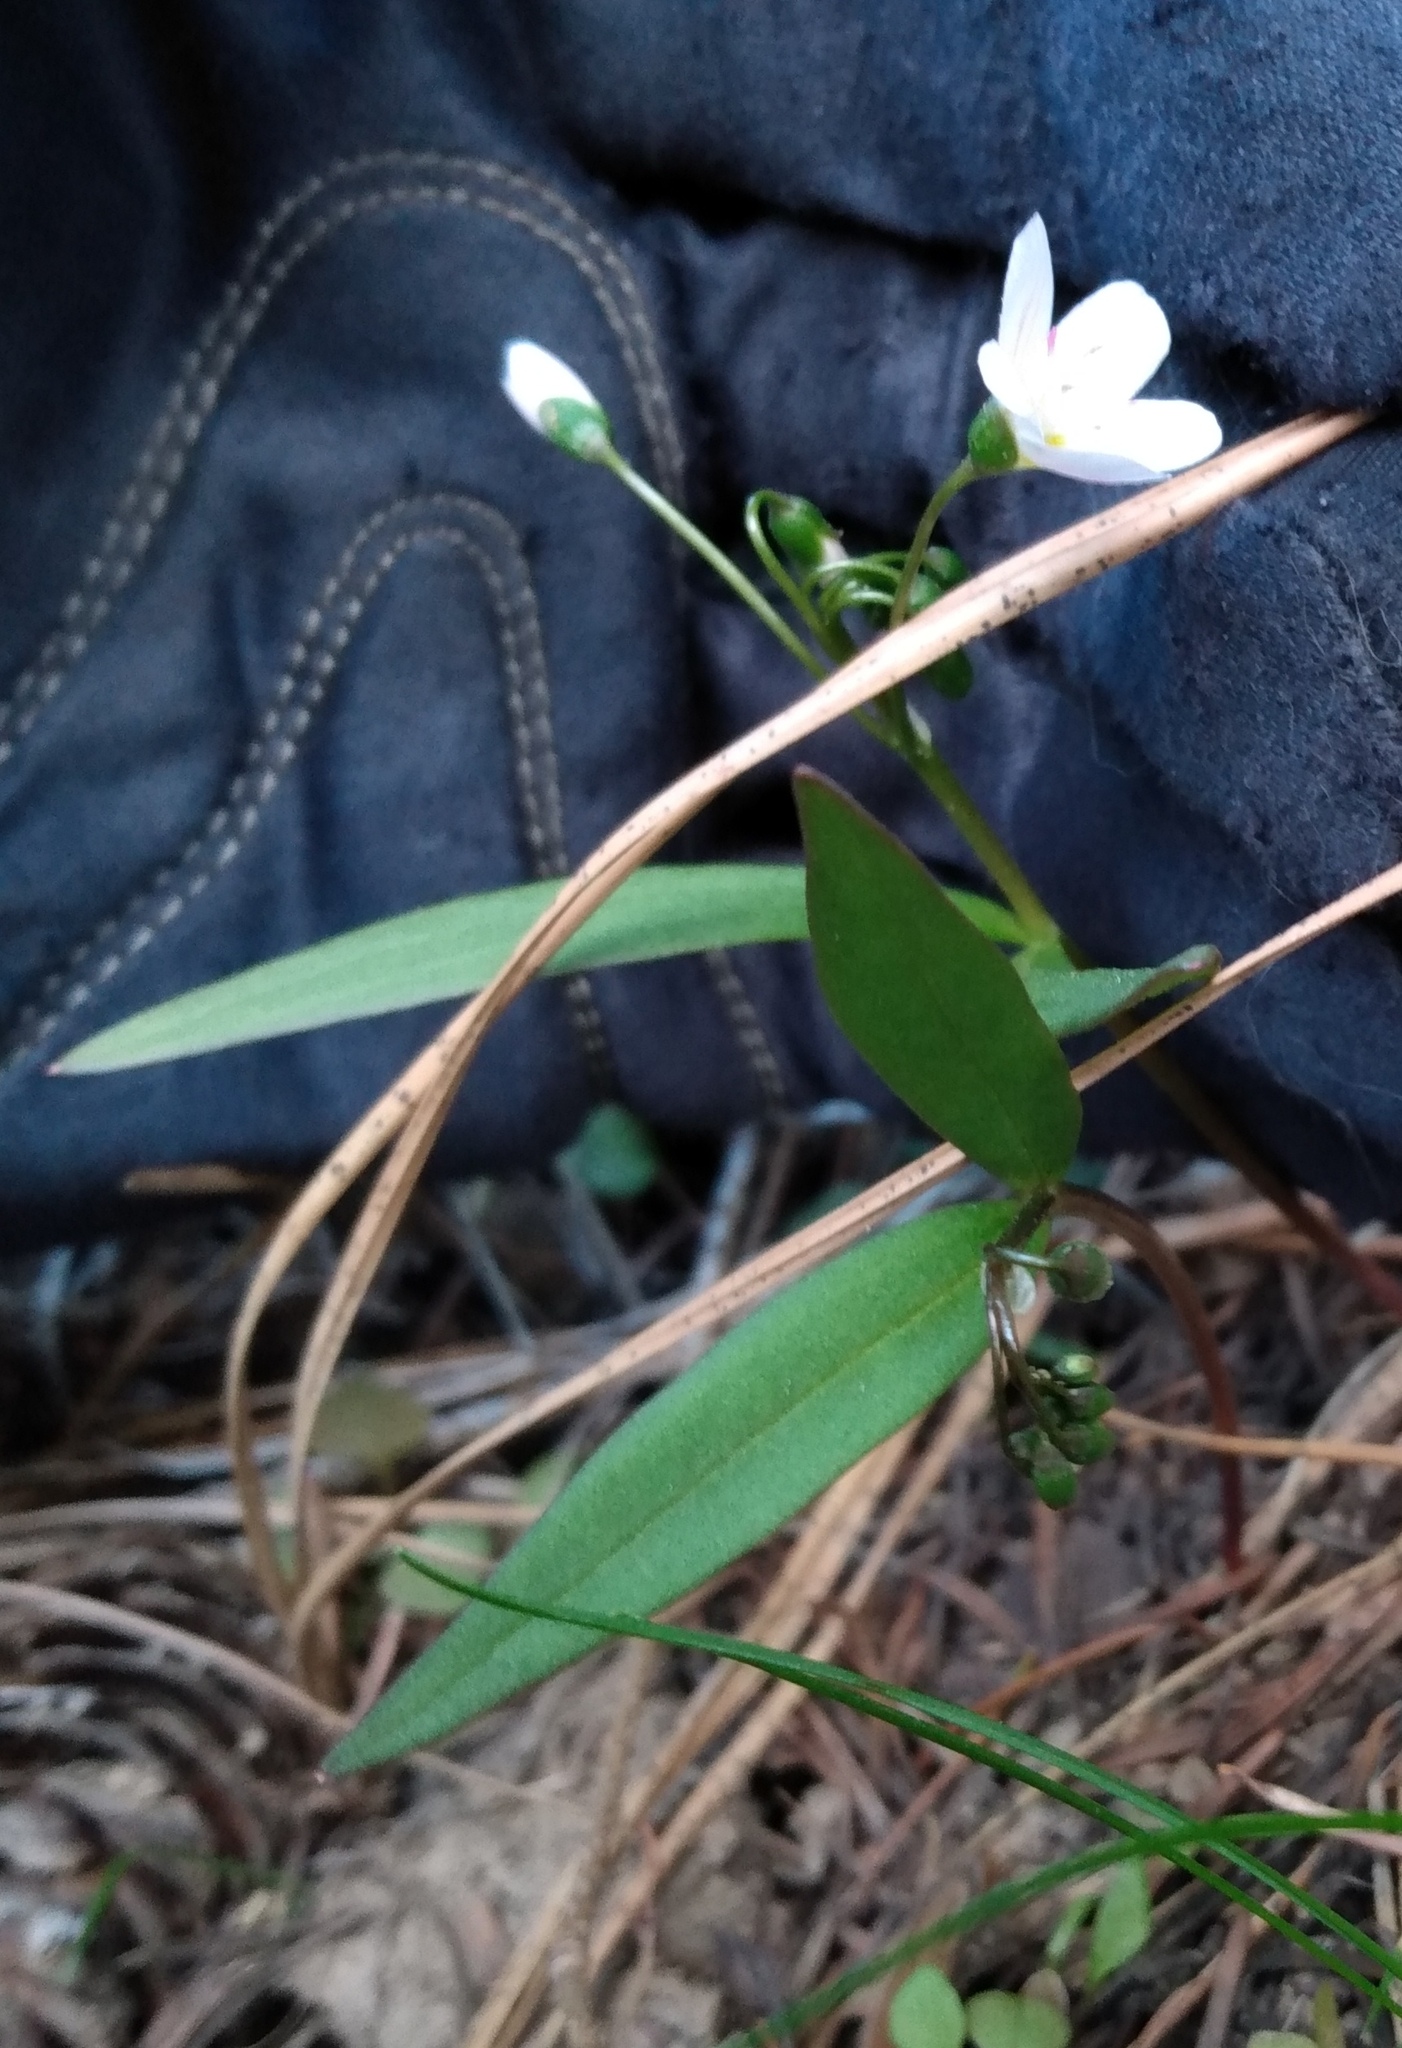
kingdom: Plantae
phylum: Tracheophyta
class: Magnoliopsida
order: Caryophyllales
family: Montiaceae
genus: Claytonia
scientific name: Claytonia lanceolata
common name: Western spring-beauty
